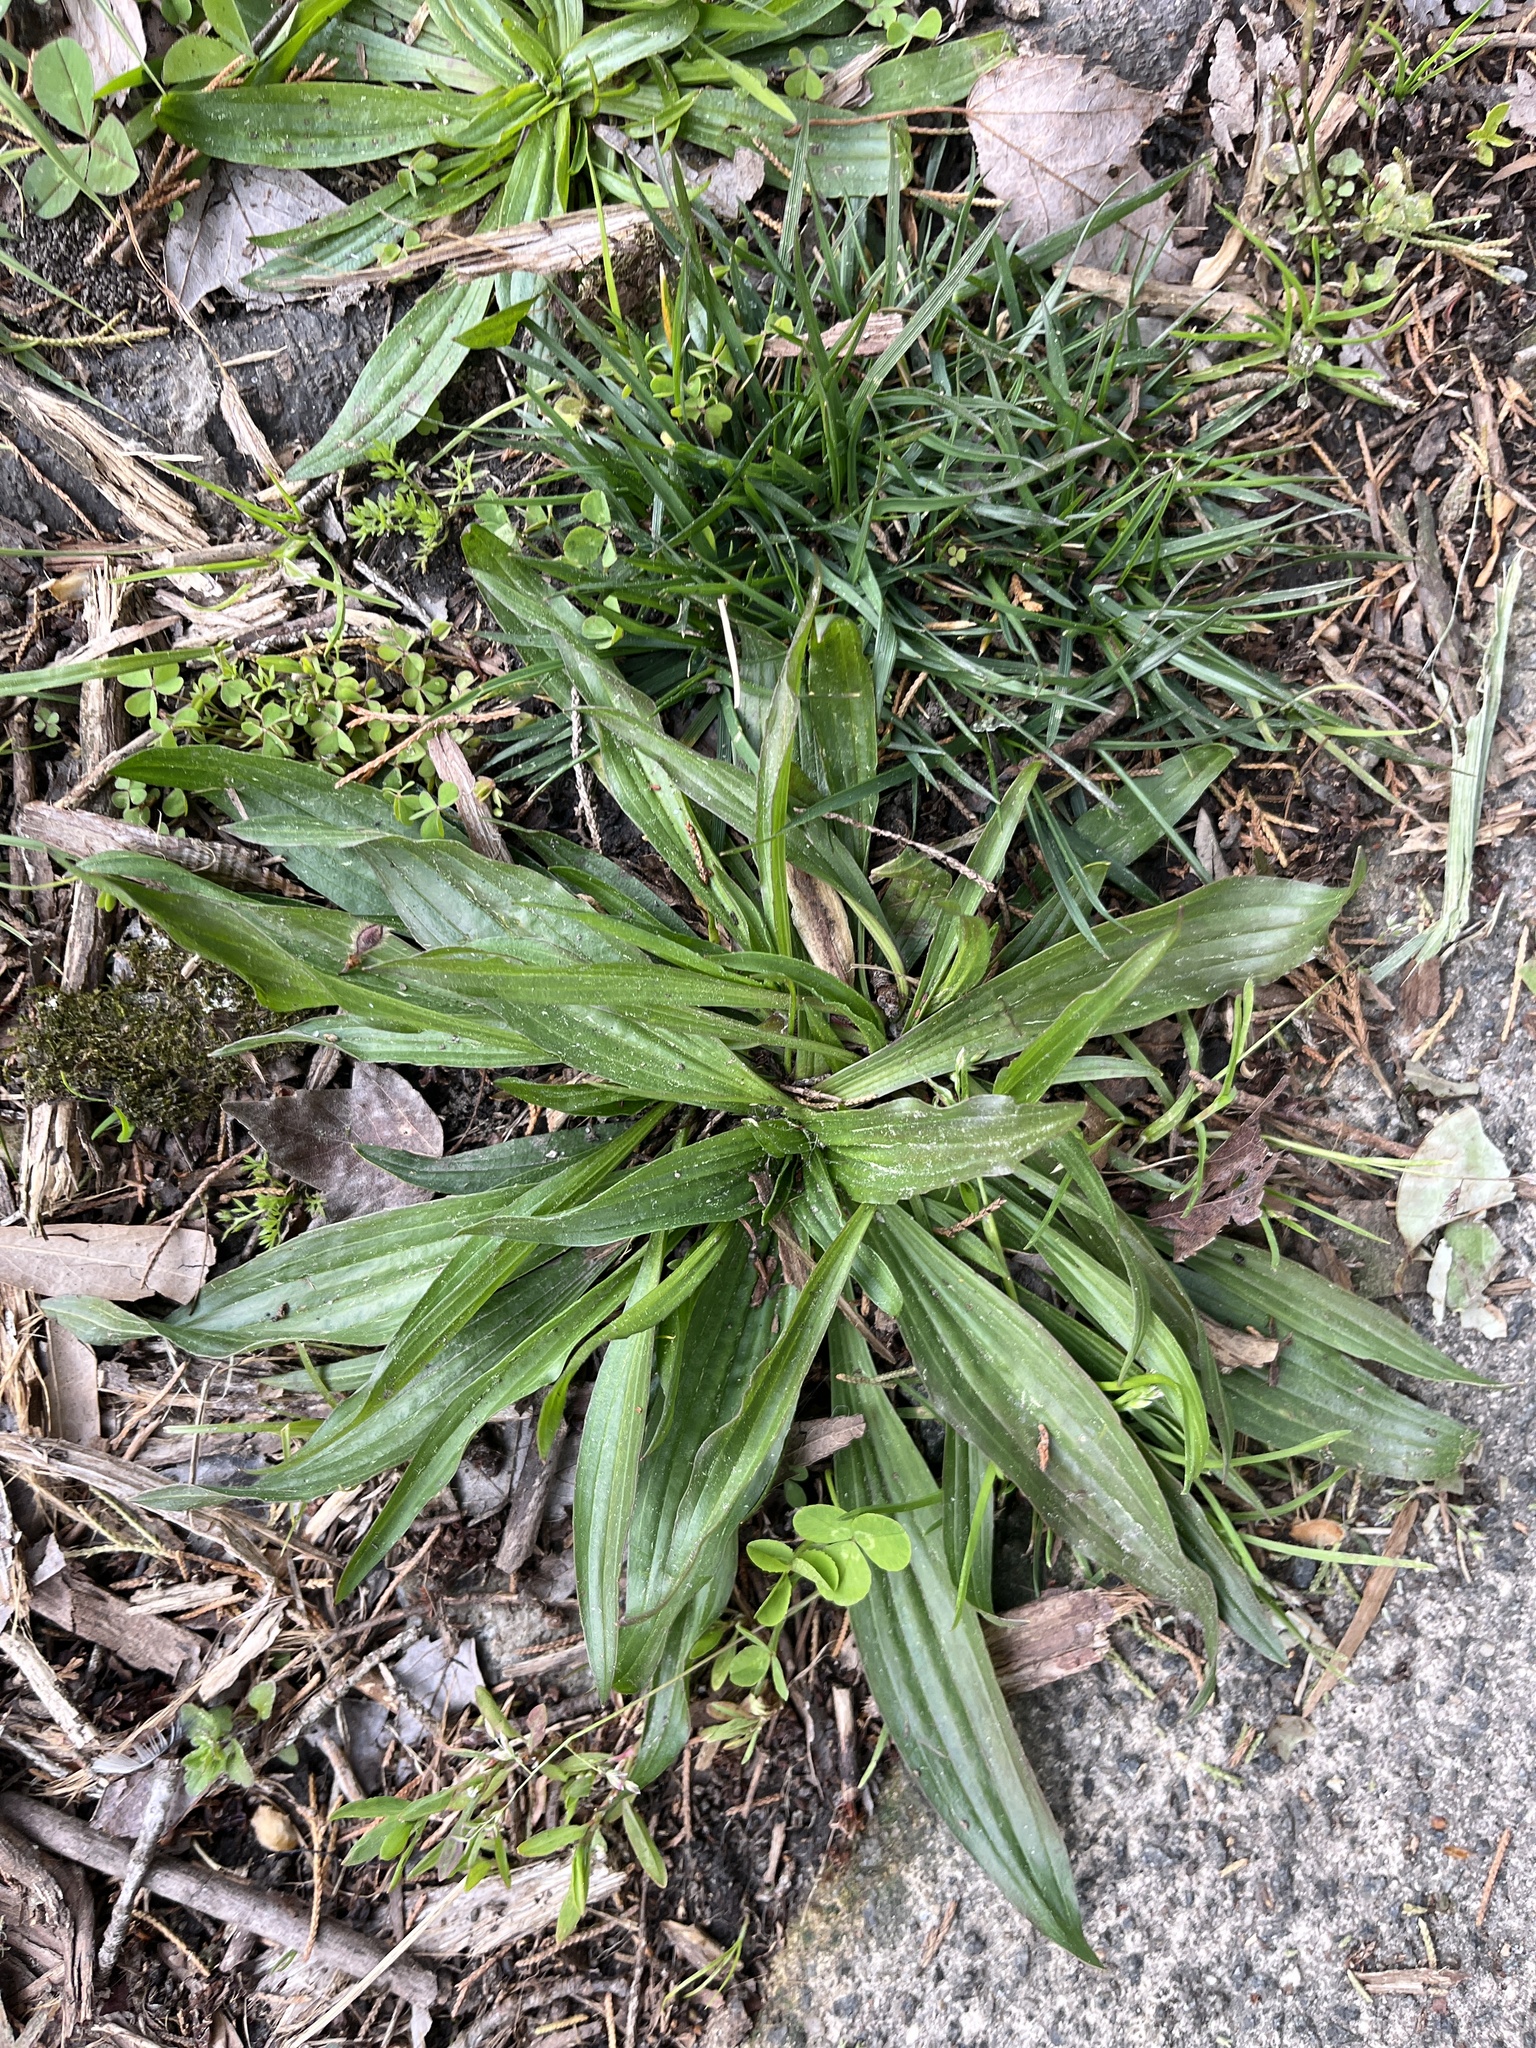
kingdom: Plantae
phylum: Tracheophyta
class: Magnoliopsida
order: Lamiales
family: Plantaginaceae
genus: Plantago
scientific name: Plantago lanceolata
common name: Ribwort plantain
